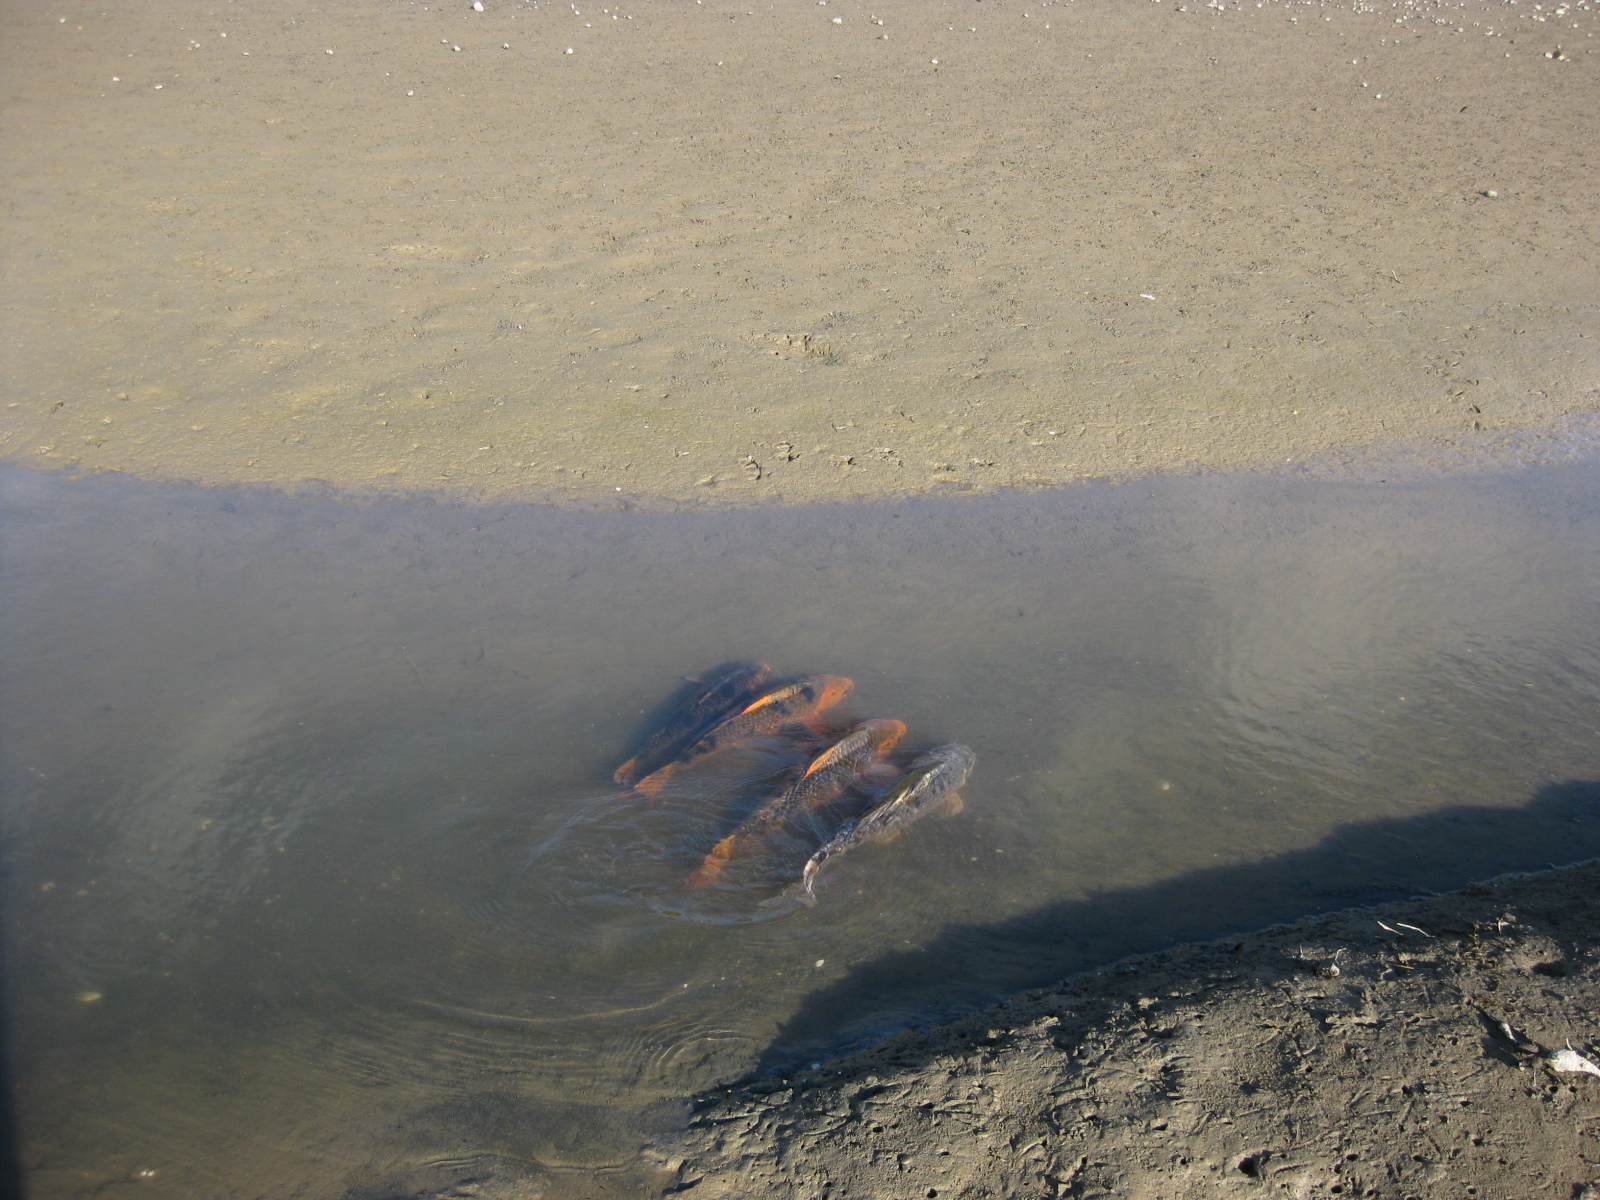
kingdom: Animalia
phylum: Chordata
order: Cypriniformes
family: Cyprinidae
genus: Cyprinus
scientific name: Cyprinus rubrofuscus
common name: Koi
